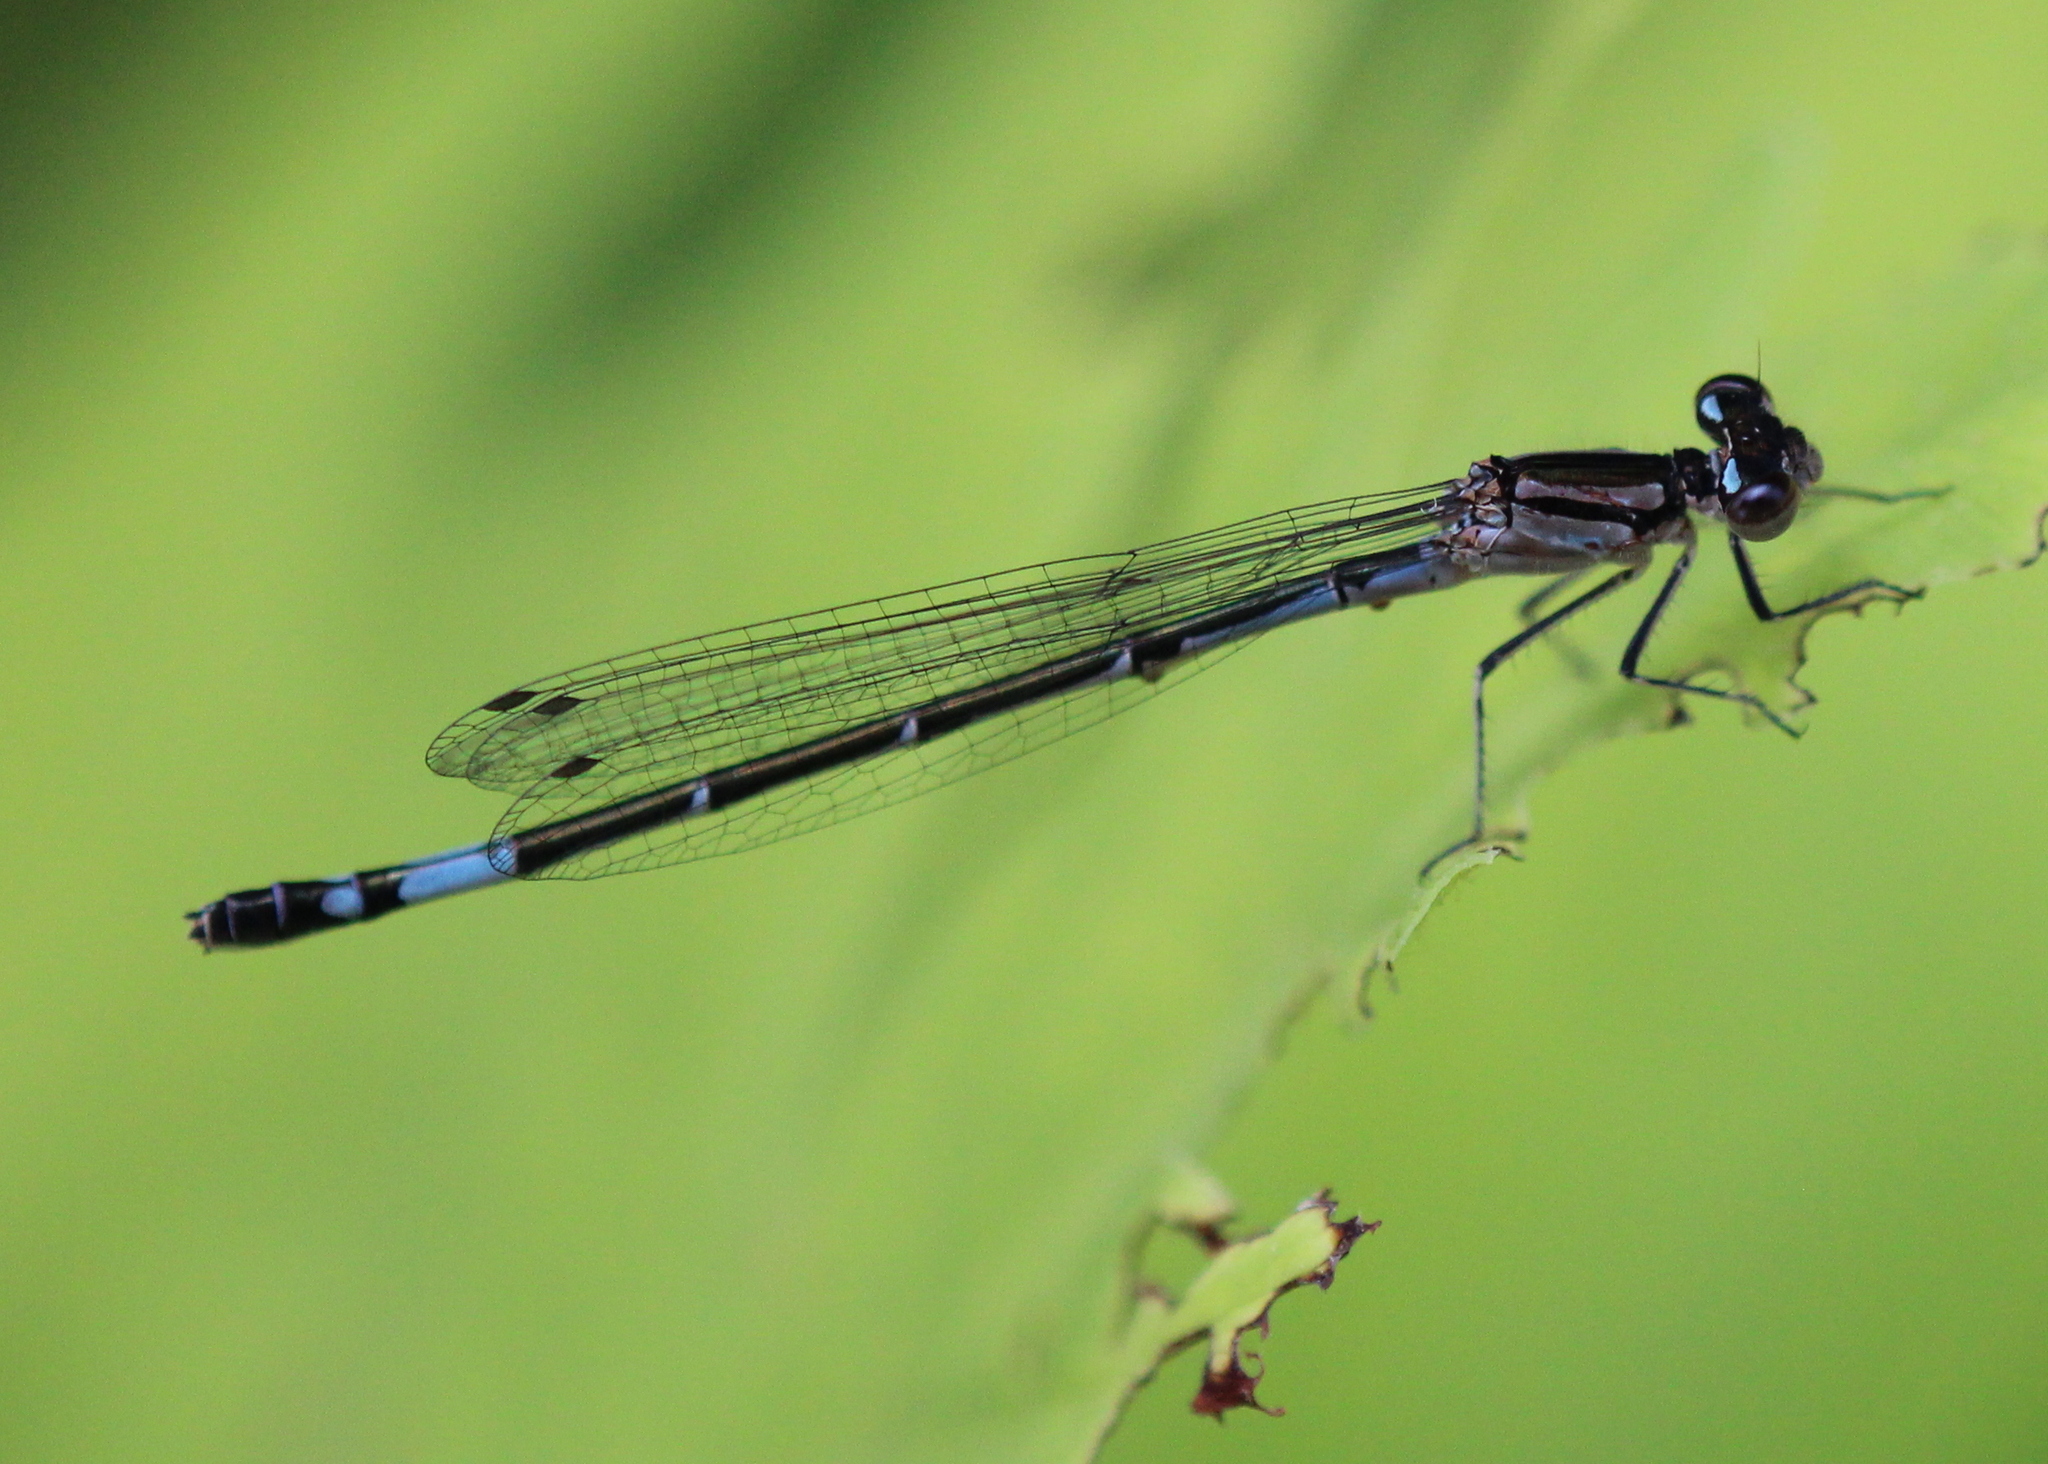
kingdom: Animalia
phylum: Arthropoda
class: Insecta
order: Odonata
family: Coenagrionidae
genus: Enallagma
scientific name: Enallagma aspersum
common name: Azure bluet
